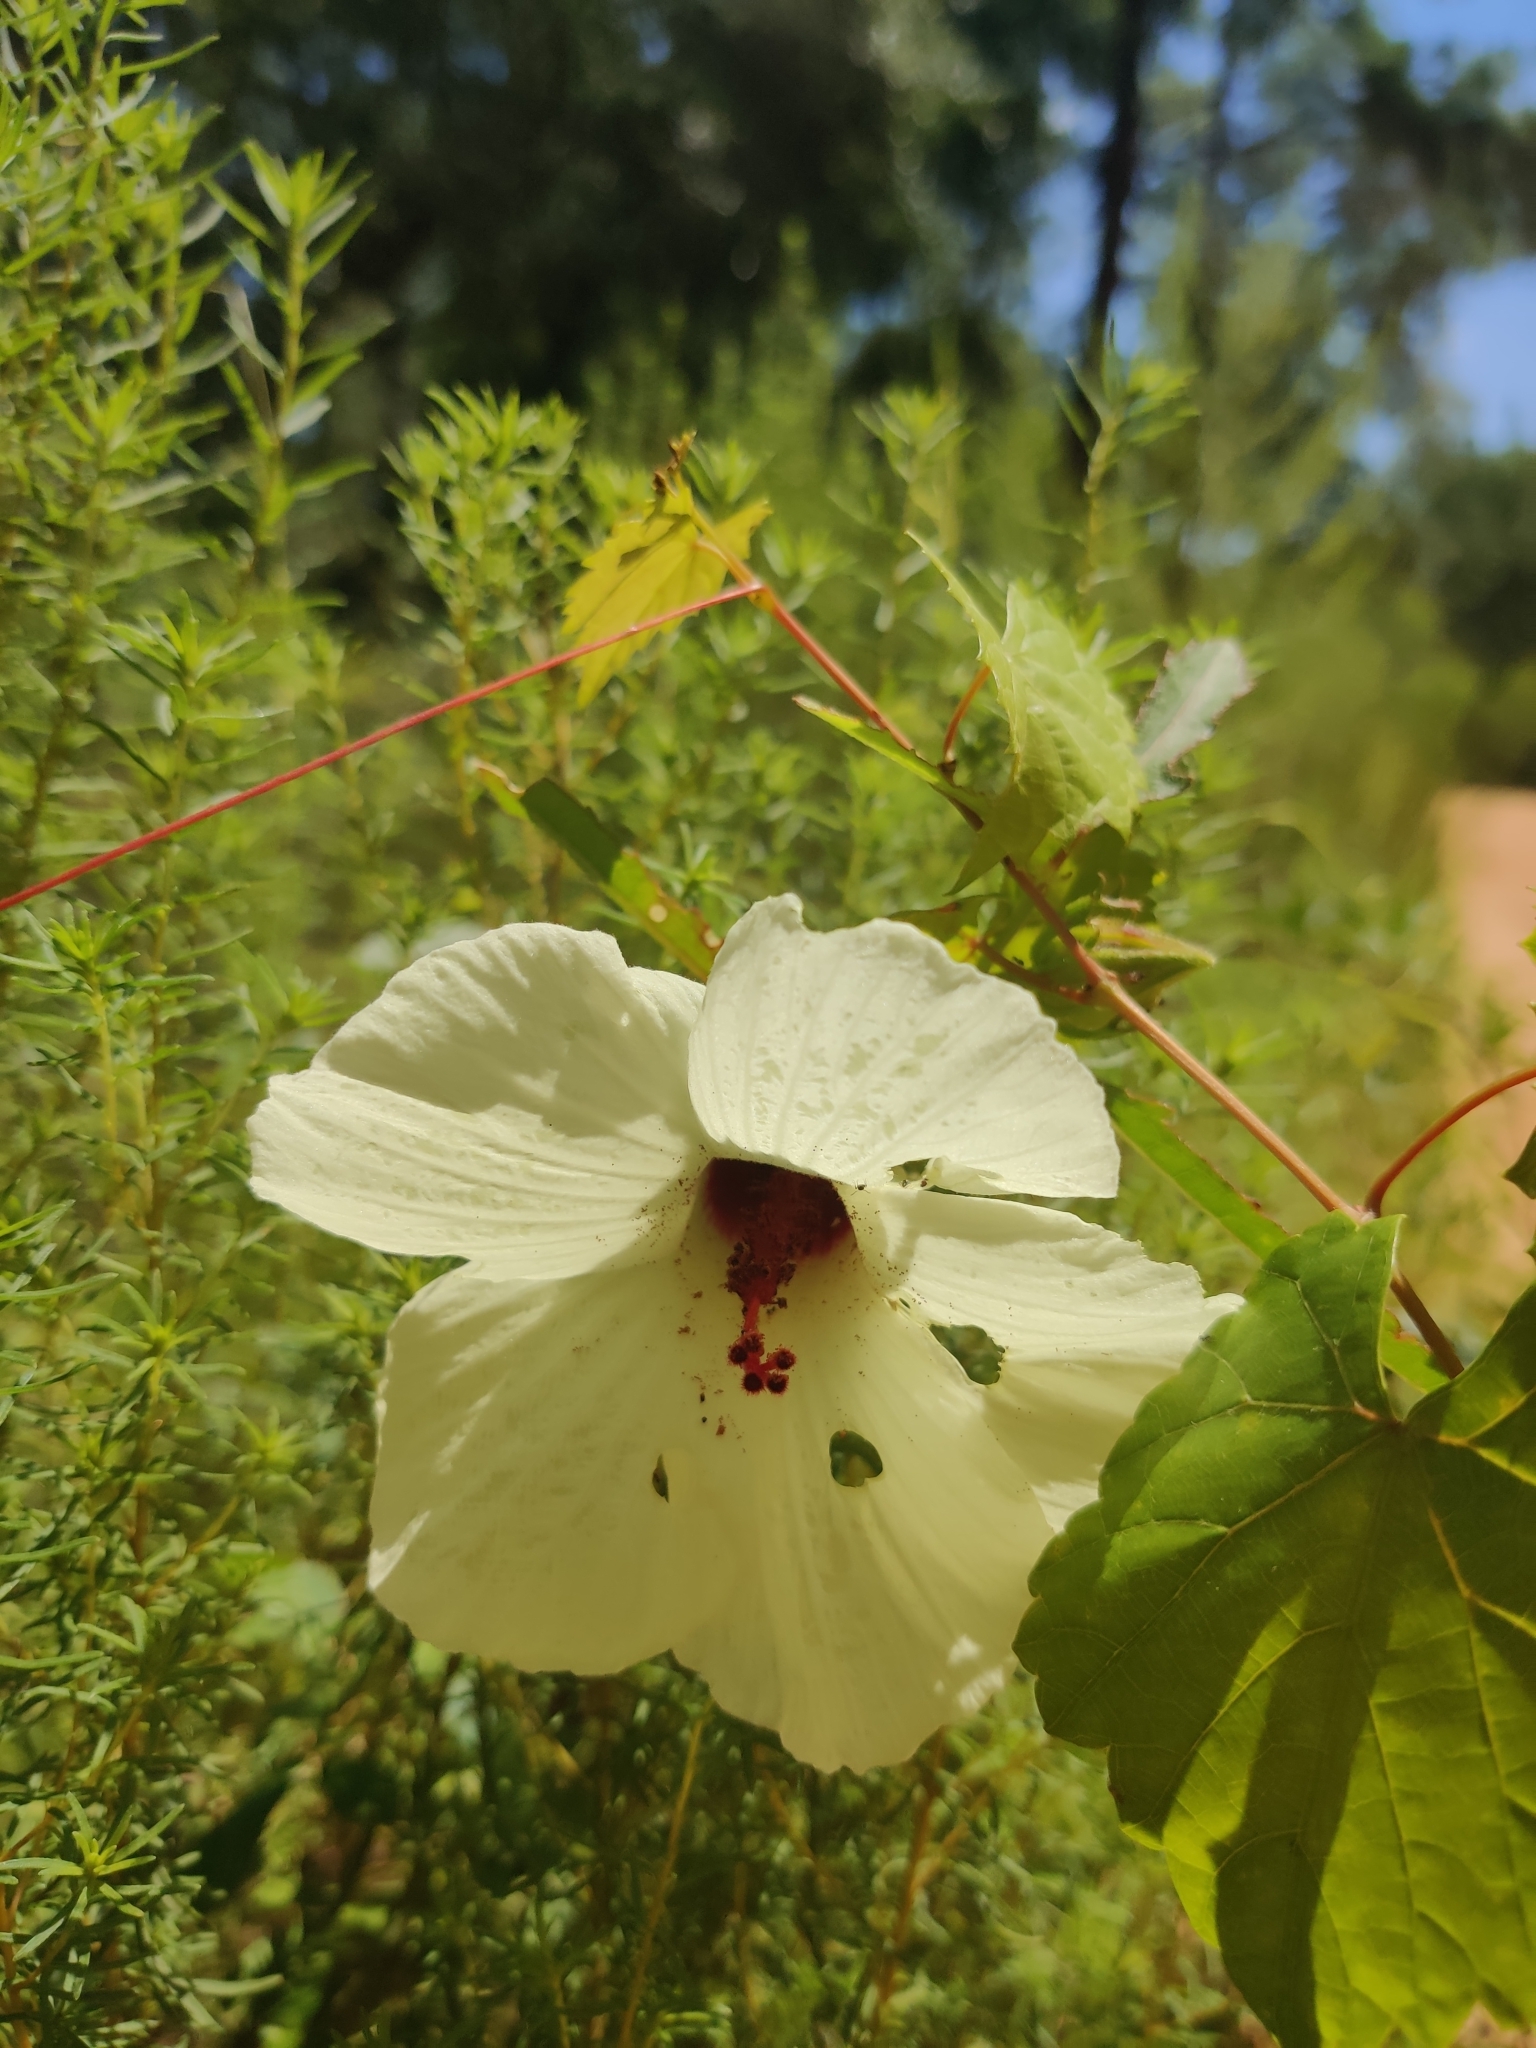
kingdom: Plantae
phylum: Tracheophyta
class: Magnoliopsida
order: Malvales
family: Malvaceae
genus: Hibiscus
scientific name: Hibiscus aculeatus
